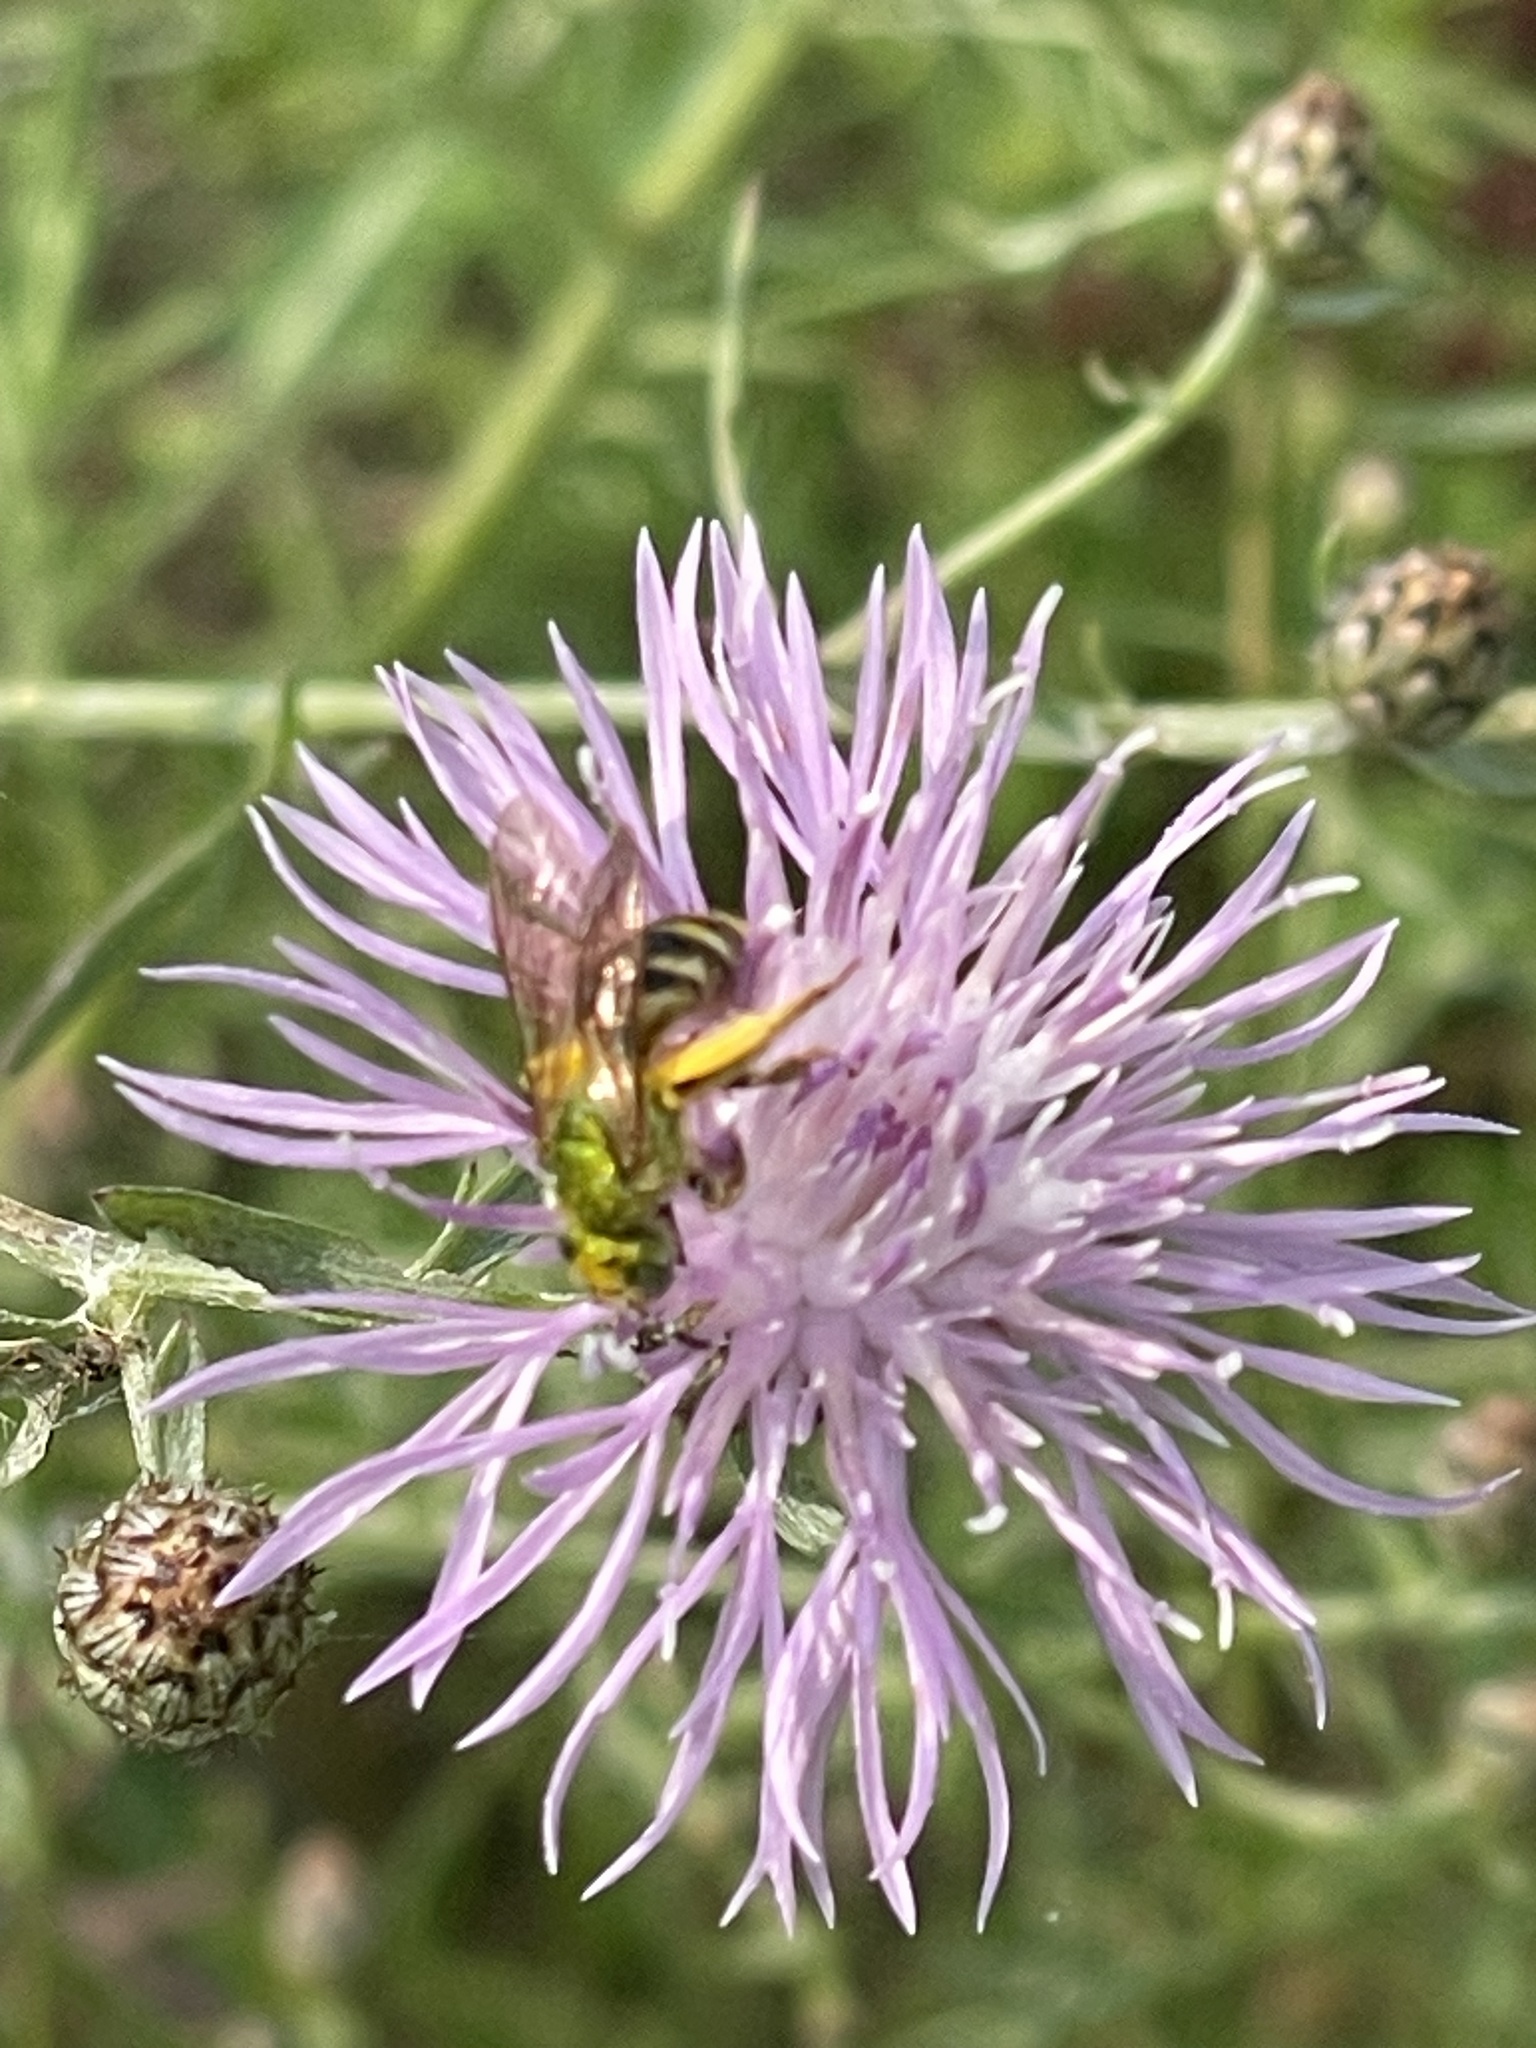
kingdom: Animalia
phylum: Arthropoda
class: Insecta
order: Hymenoptera
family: Halictidae
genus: Agapostemon
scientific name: Agapostemon virescens
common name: Bicolored striped sweat bee
